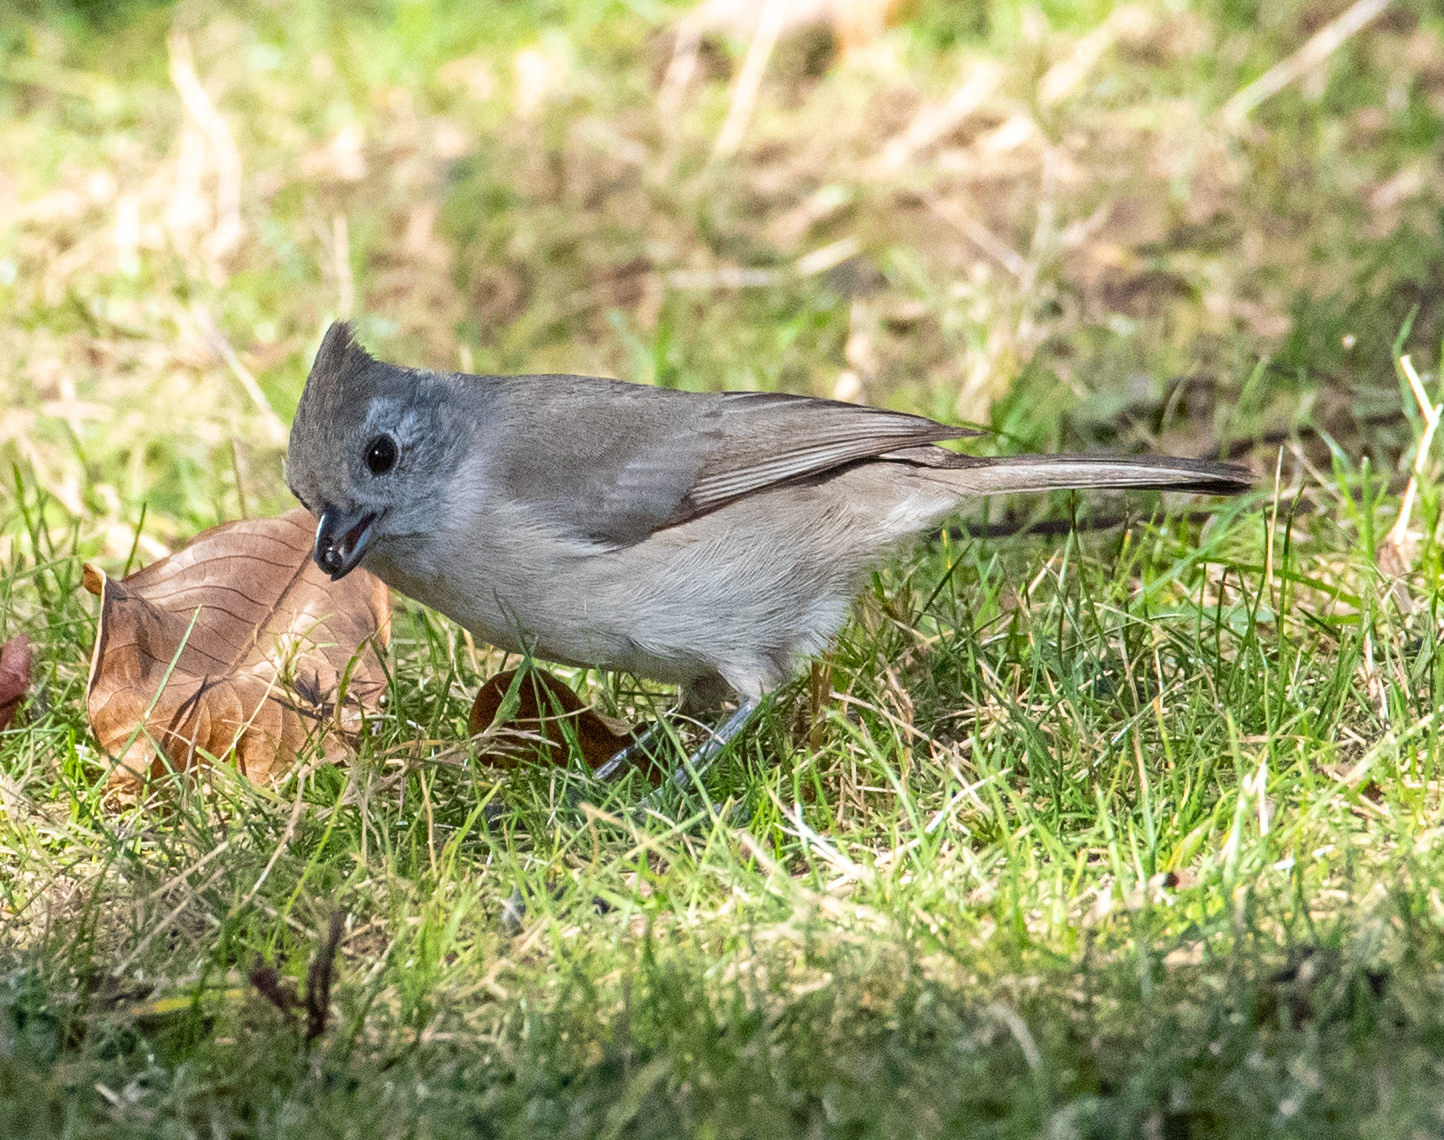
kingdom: Animalia
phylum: Chordata
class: Aves
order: Passeriformes
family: Paridae
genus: Baeolophus
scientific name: Baeolophus inornatus
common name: Oak titmouse
